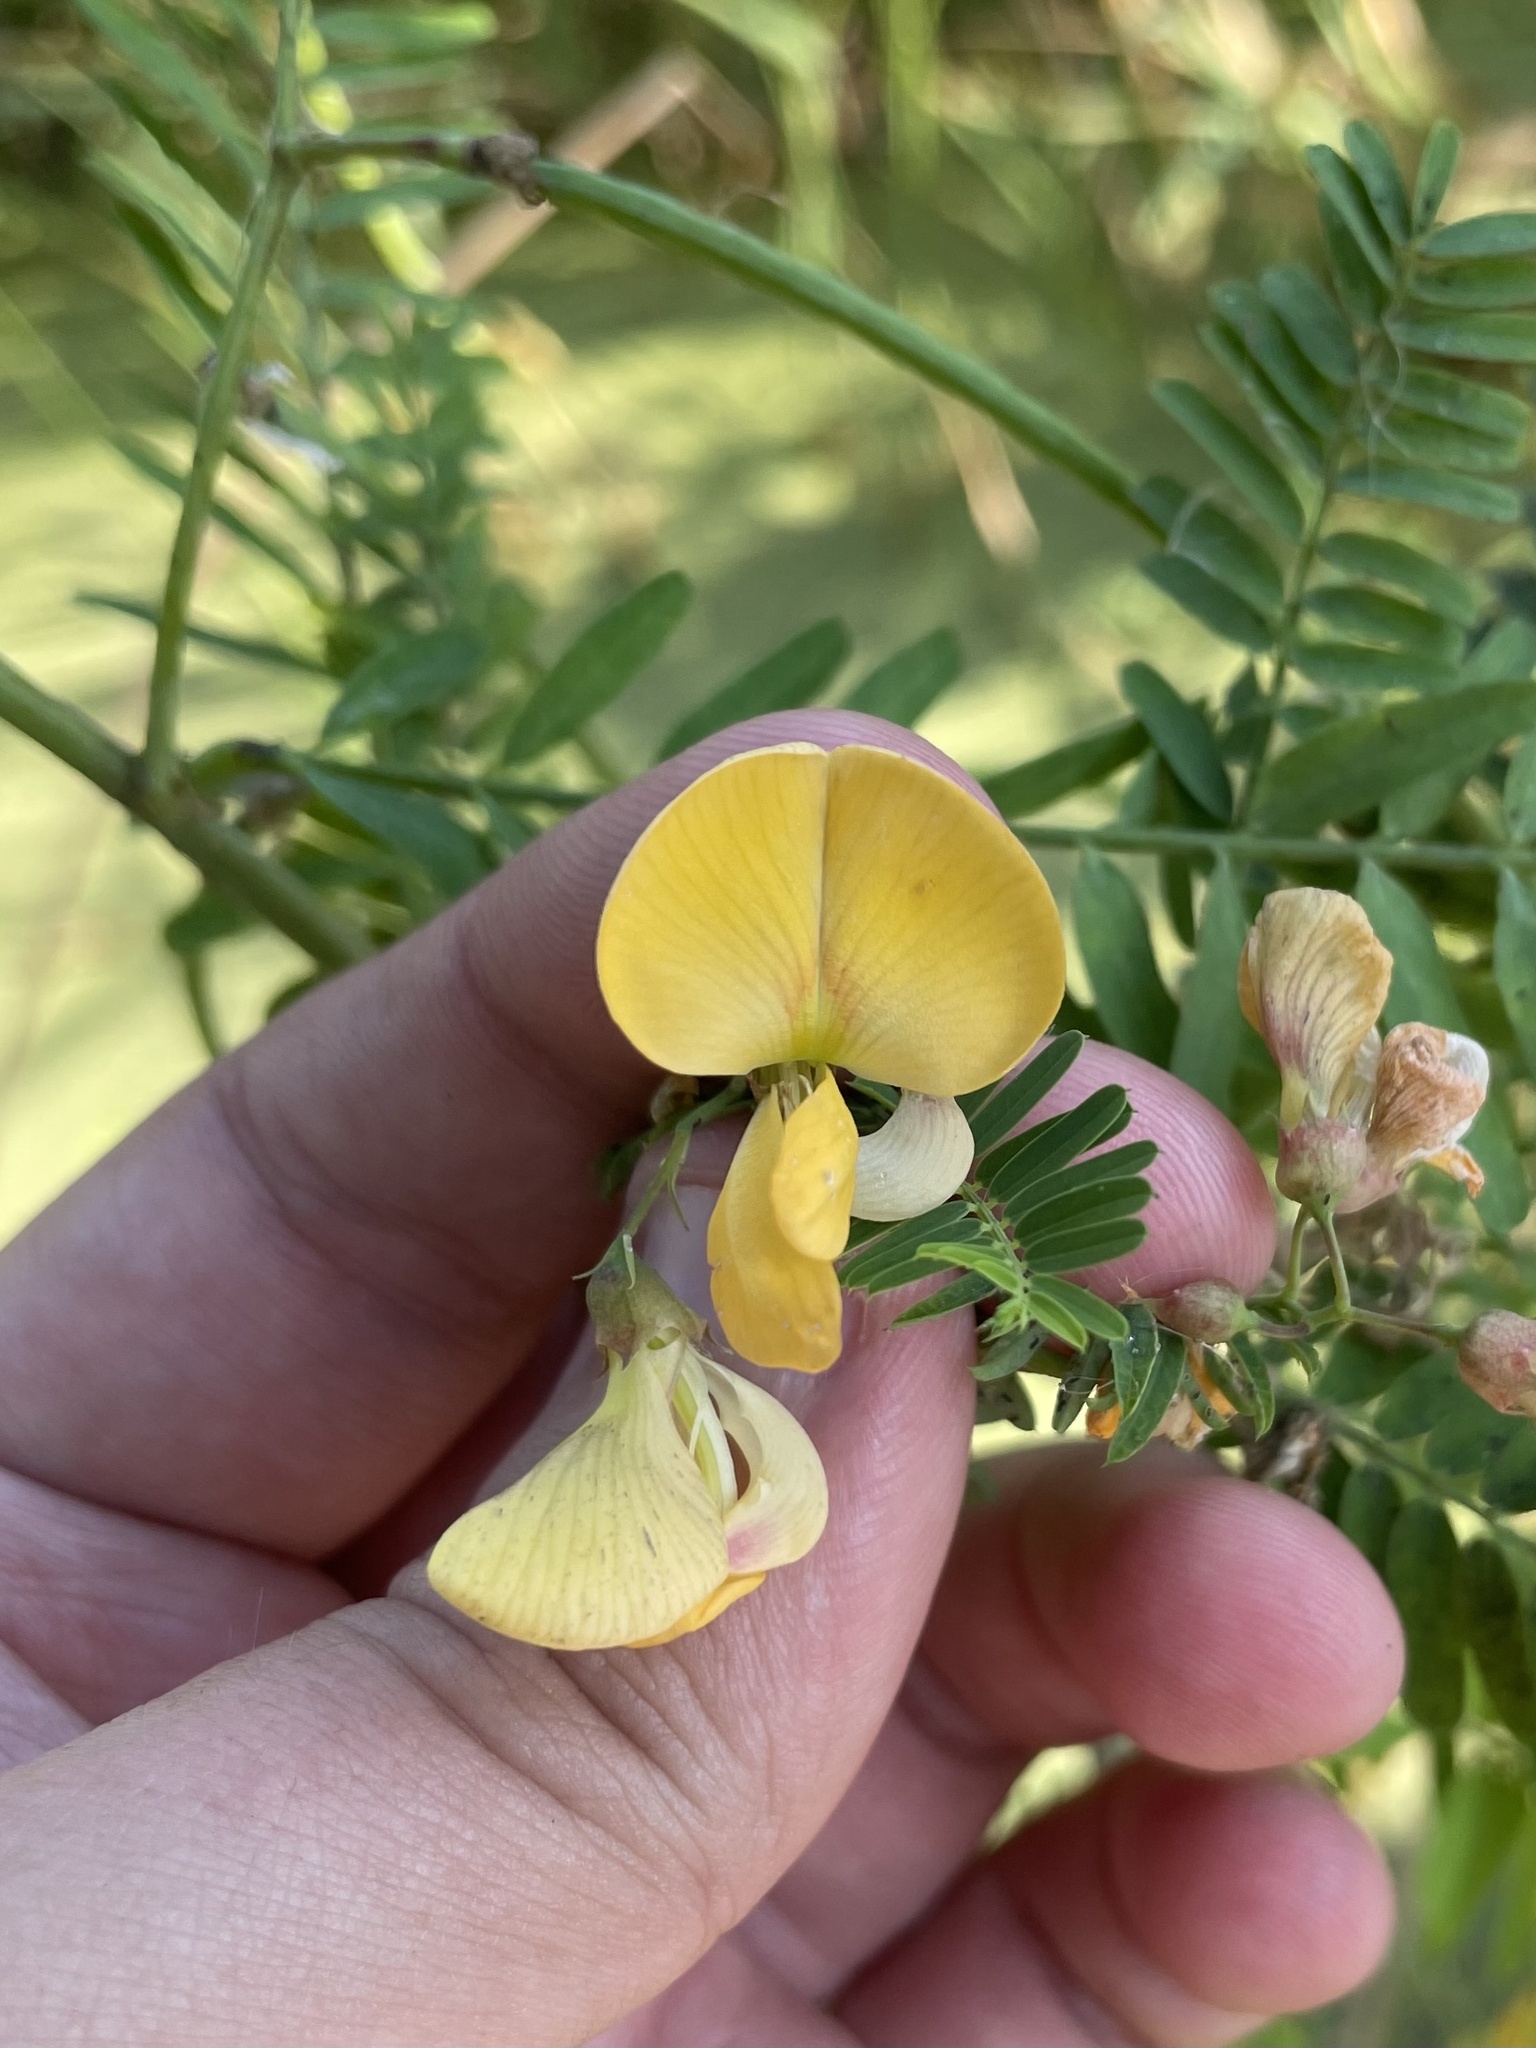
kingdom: Plantae
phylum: Tracheophyta
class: Magnoliopsida
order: Fabales
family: Fabaceae
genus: Sesbania
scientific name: Sesbania herbacea
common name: Bigpod sesbania
